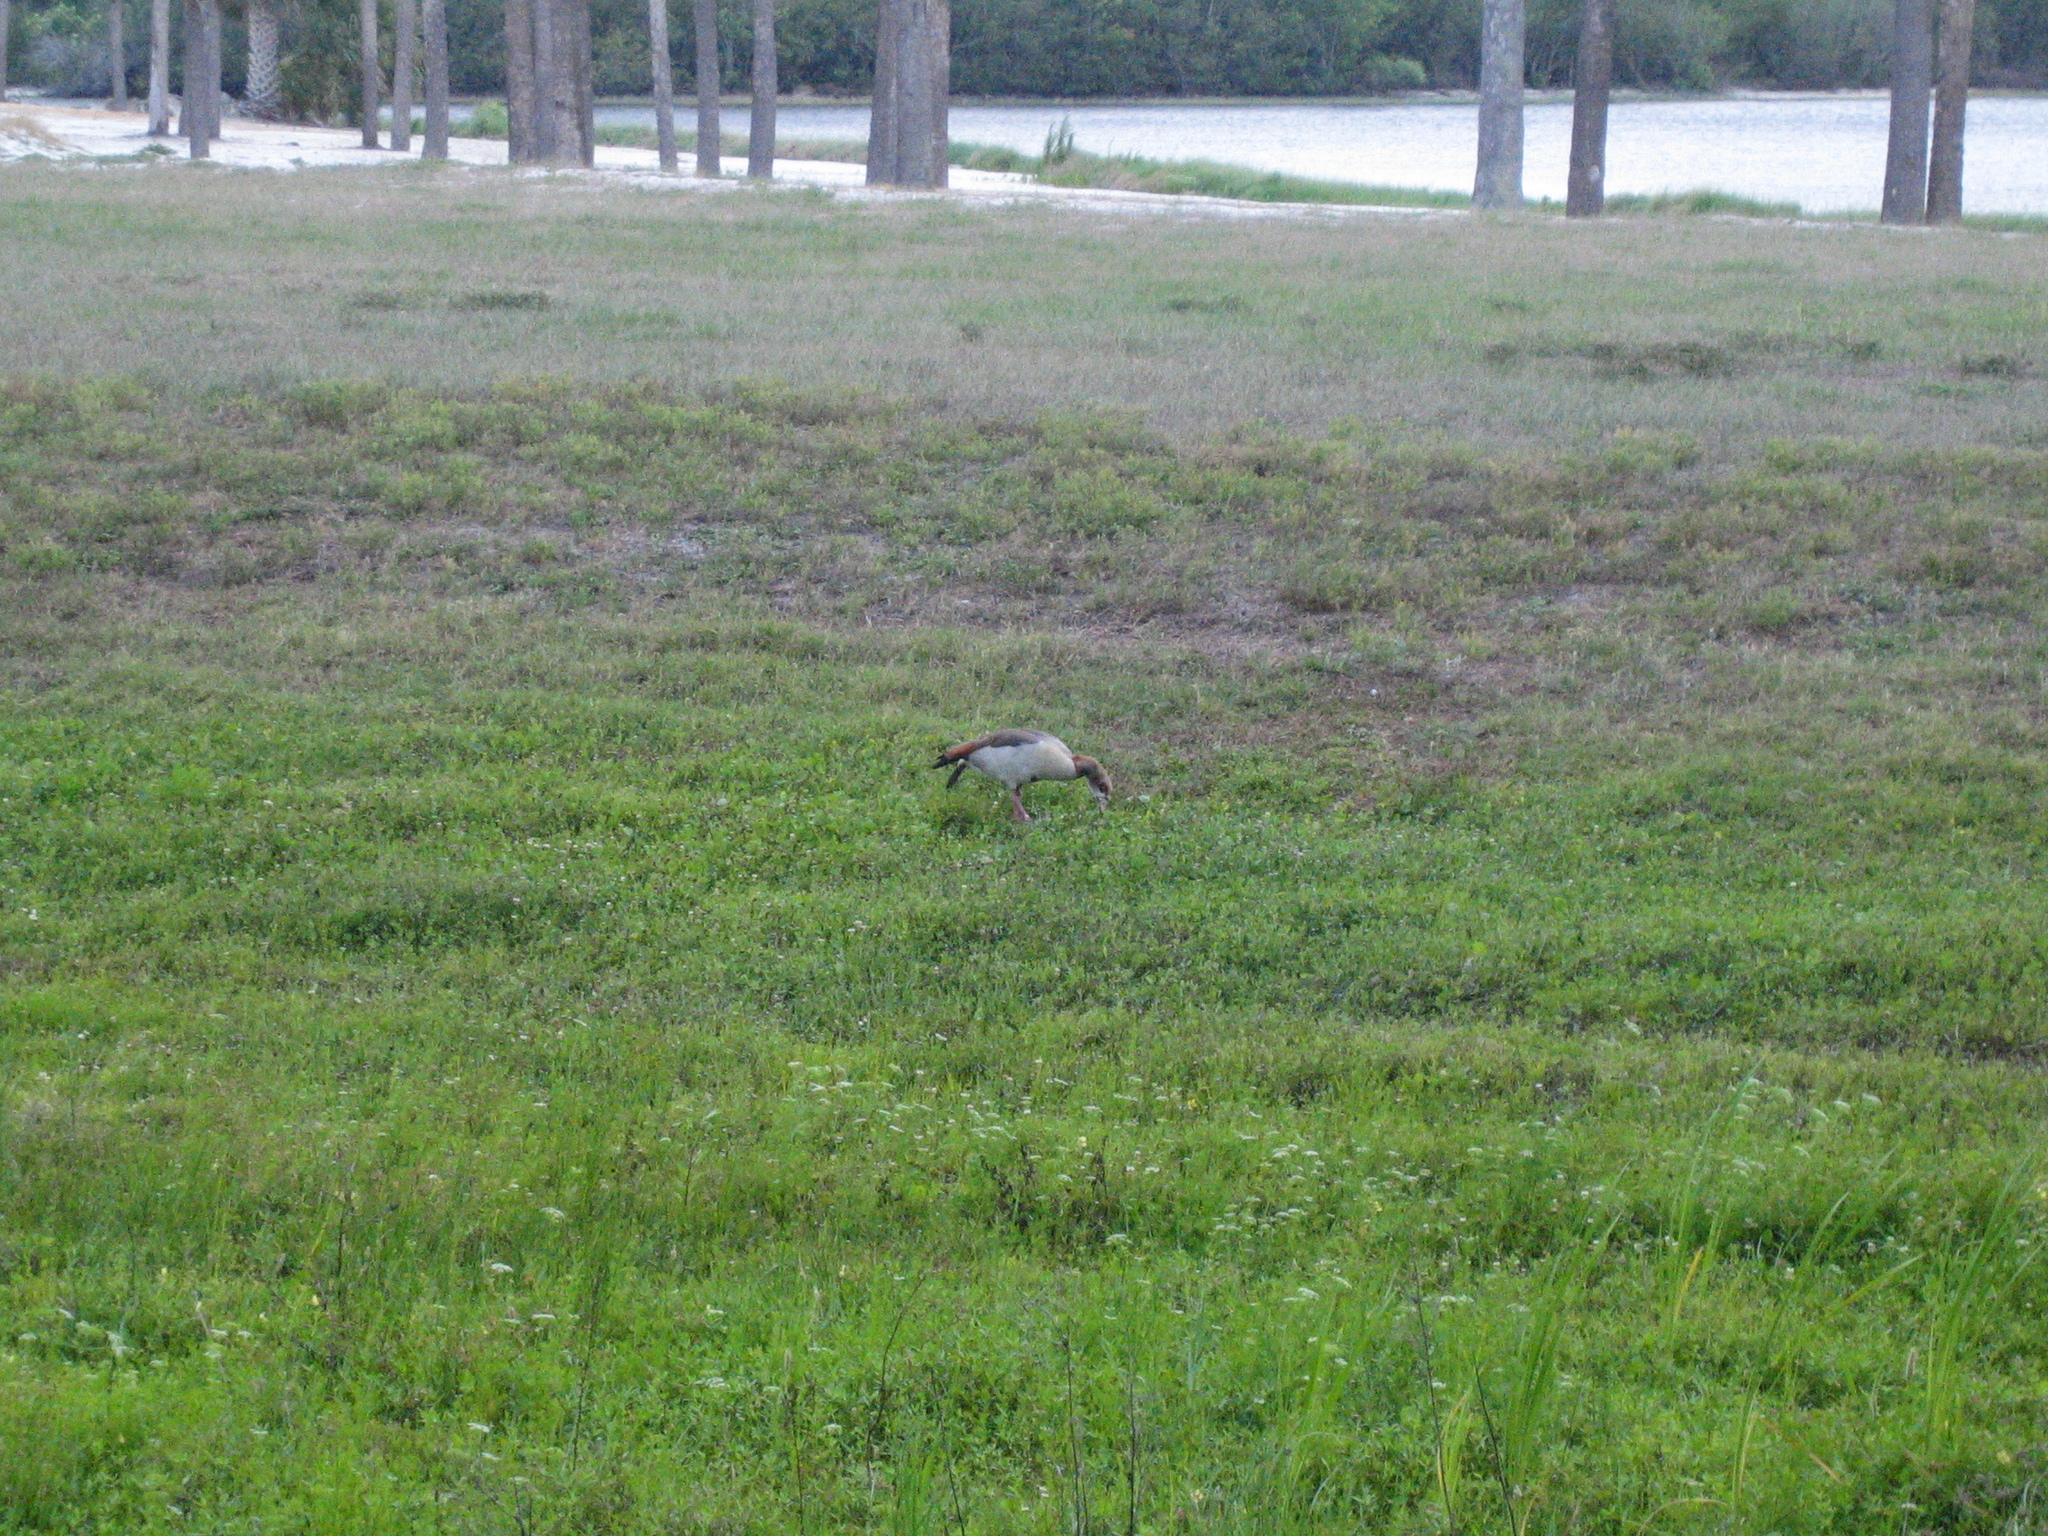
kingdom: Animalia
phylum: Chordata
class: Aves
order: Anseriformes
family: Anatidae
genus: Alopochen
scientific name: Alopochen aegyptiaca
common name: Egyptian goose
